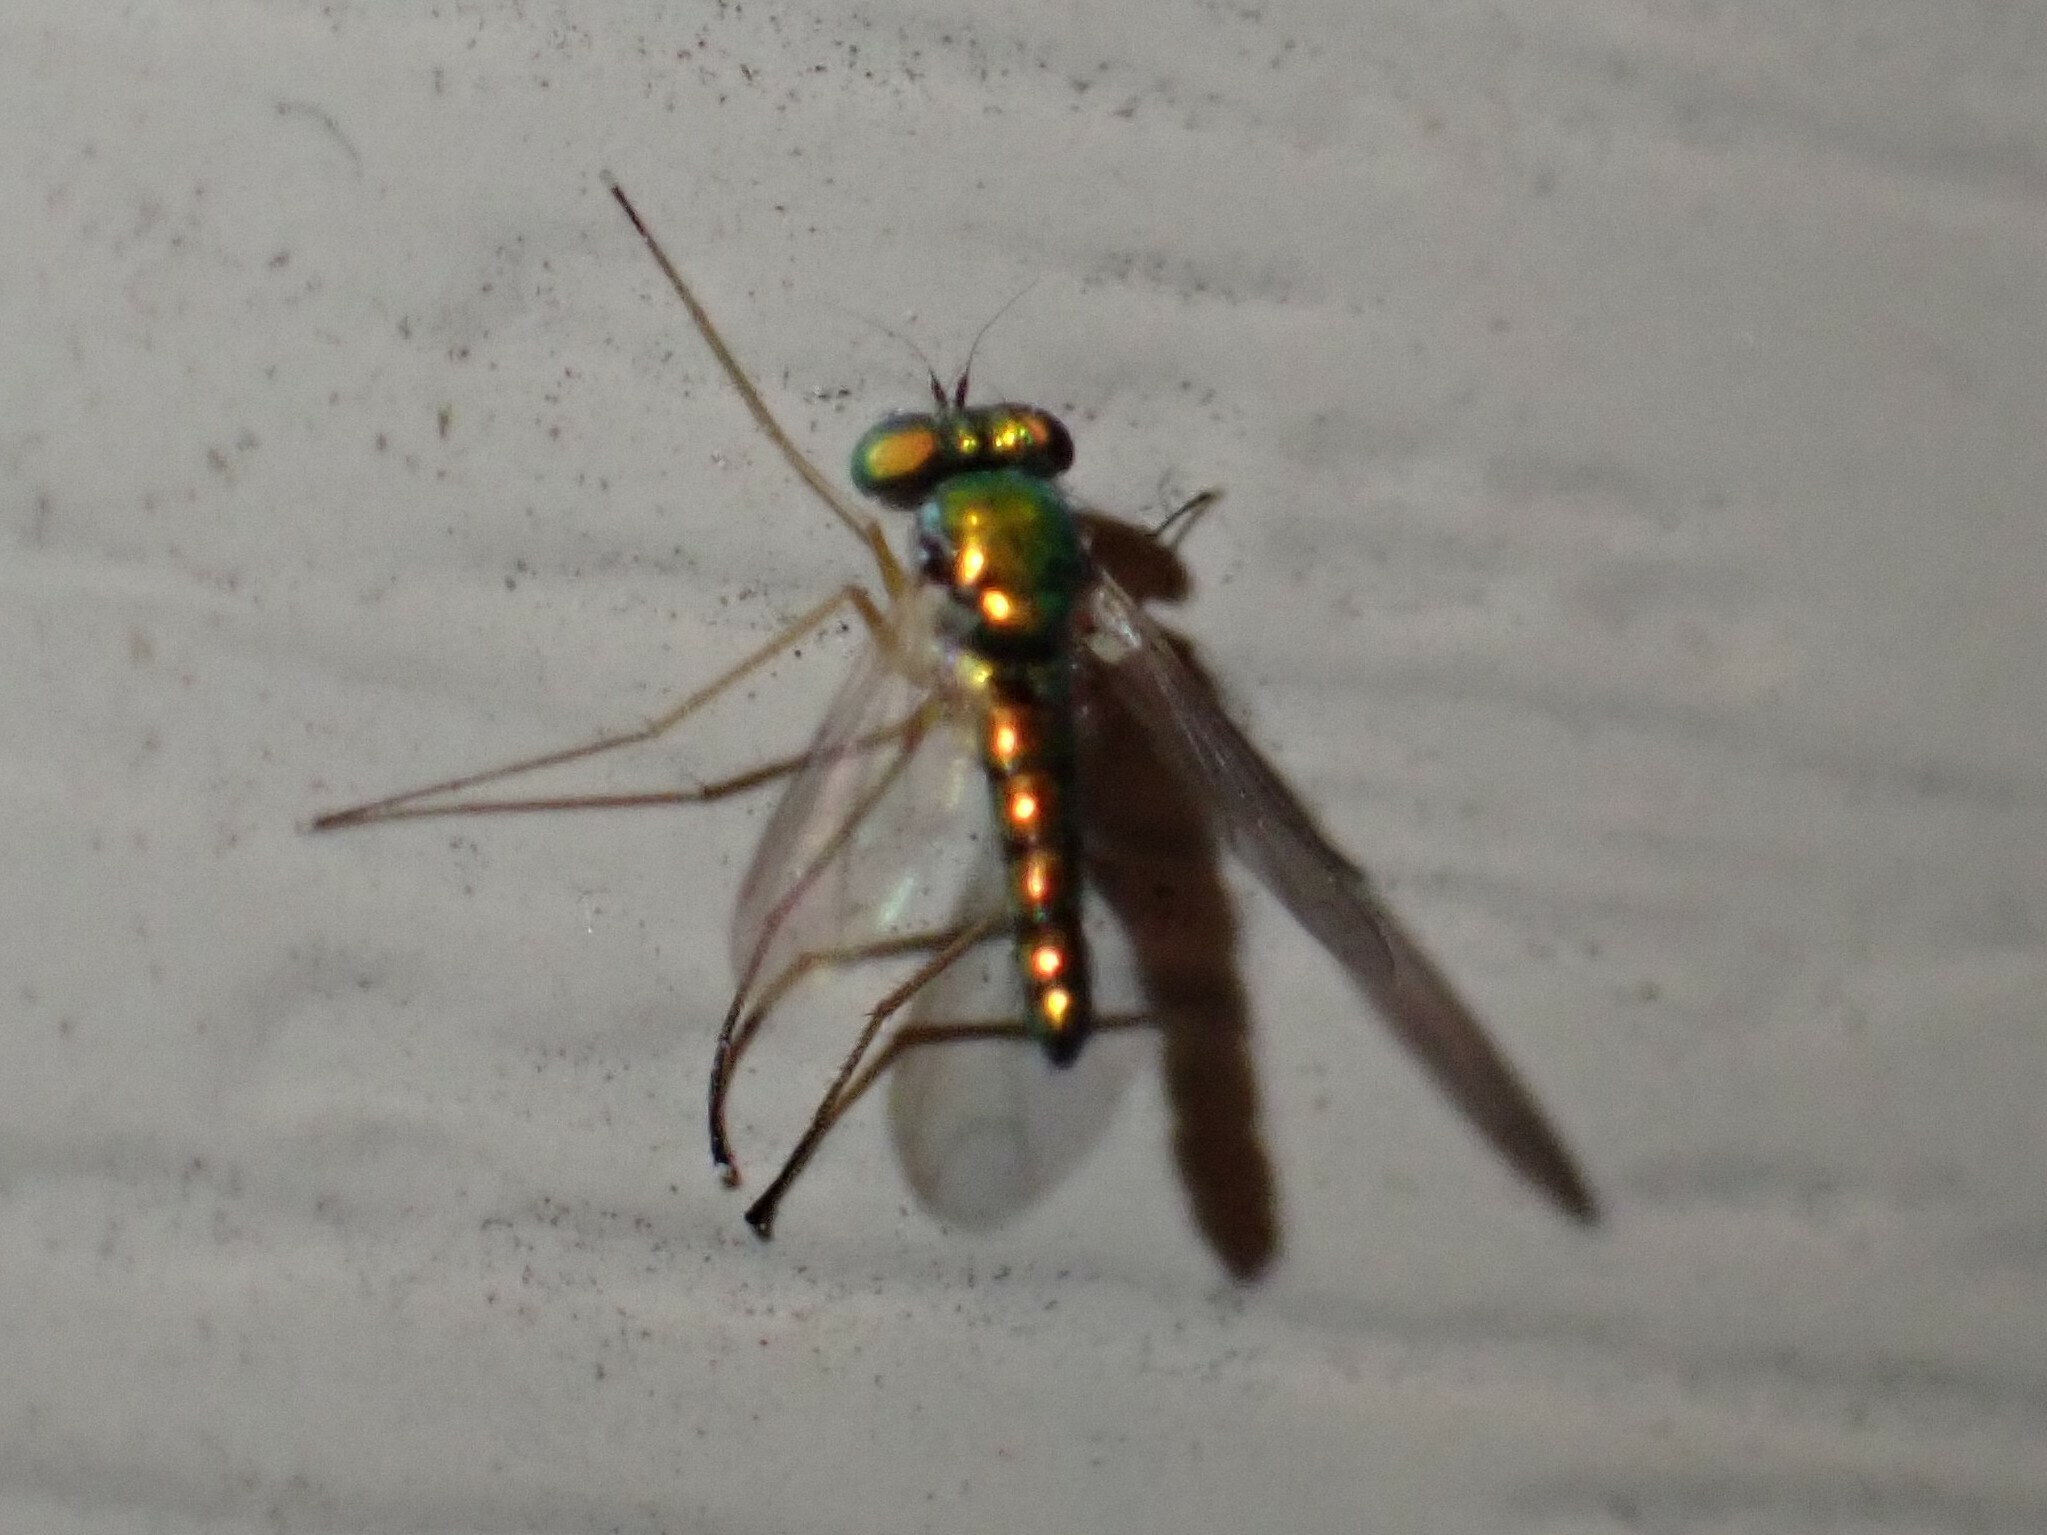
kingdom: Animalia
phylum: Arthropoda
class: Insecta
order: Diptera
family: Dolichopodidae
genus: Condylostylus
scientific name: Condylostylus banksii
